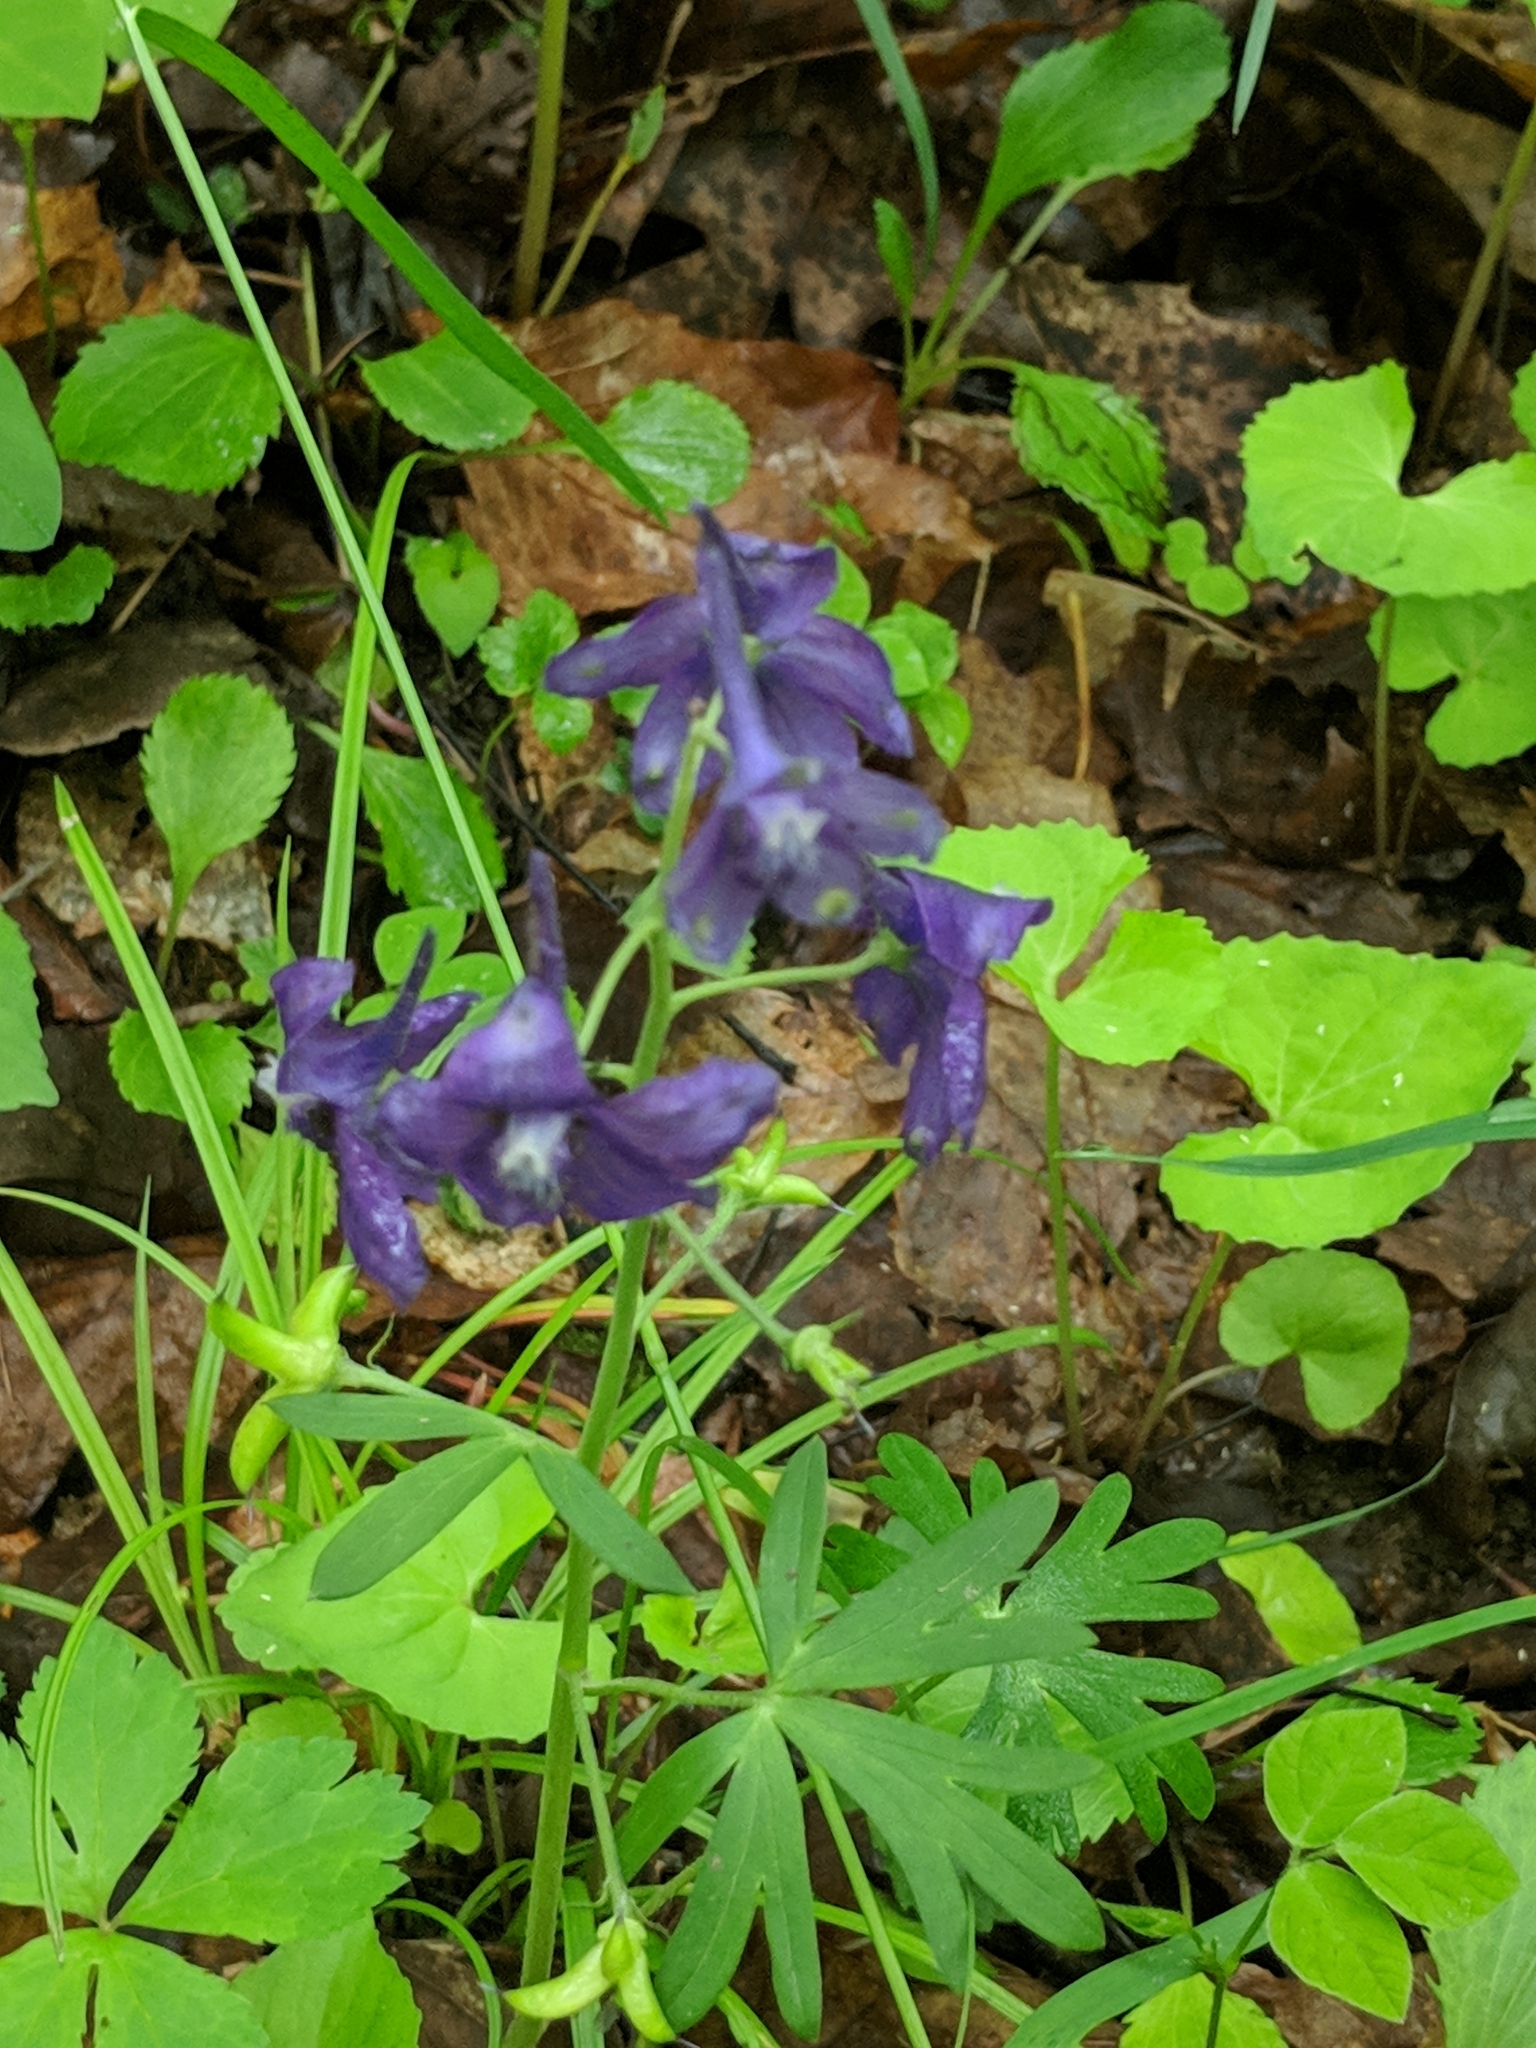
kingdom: Plantae
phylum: Tracheophyta
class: Magnoliopsida
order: Ranunculales
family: Ranunculaceae
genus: Delphinium
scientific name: Delphinium tricorne
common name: Dwarf larkspur
